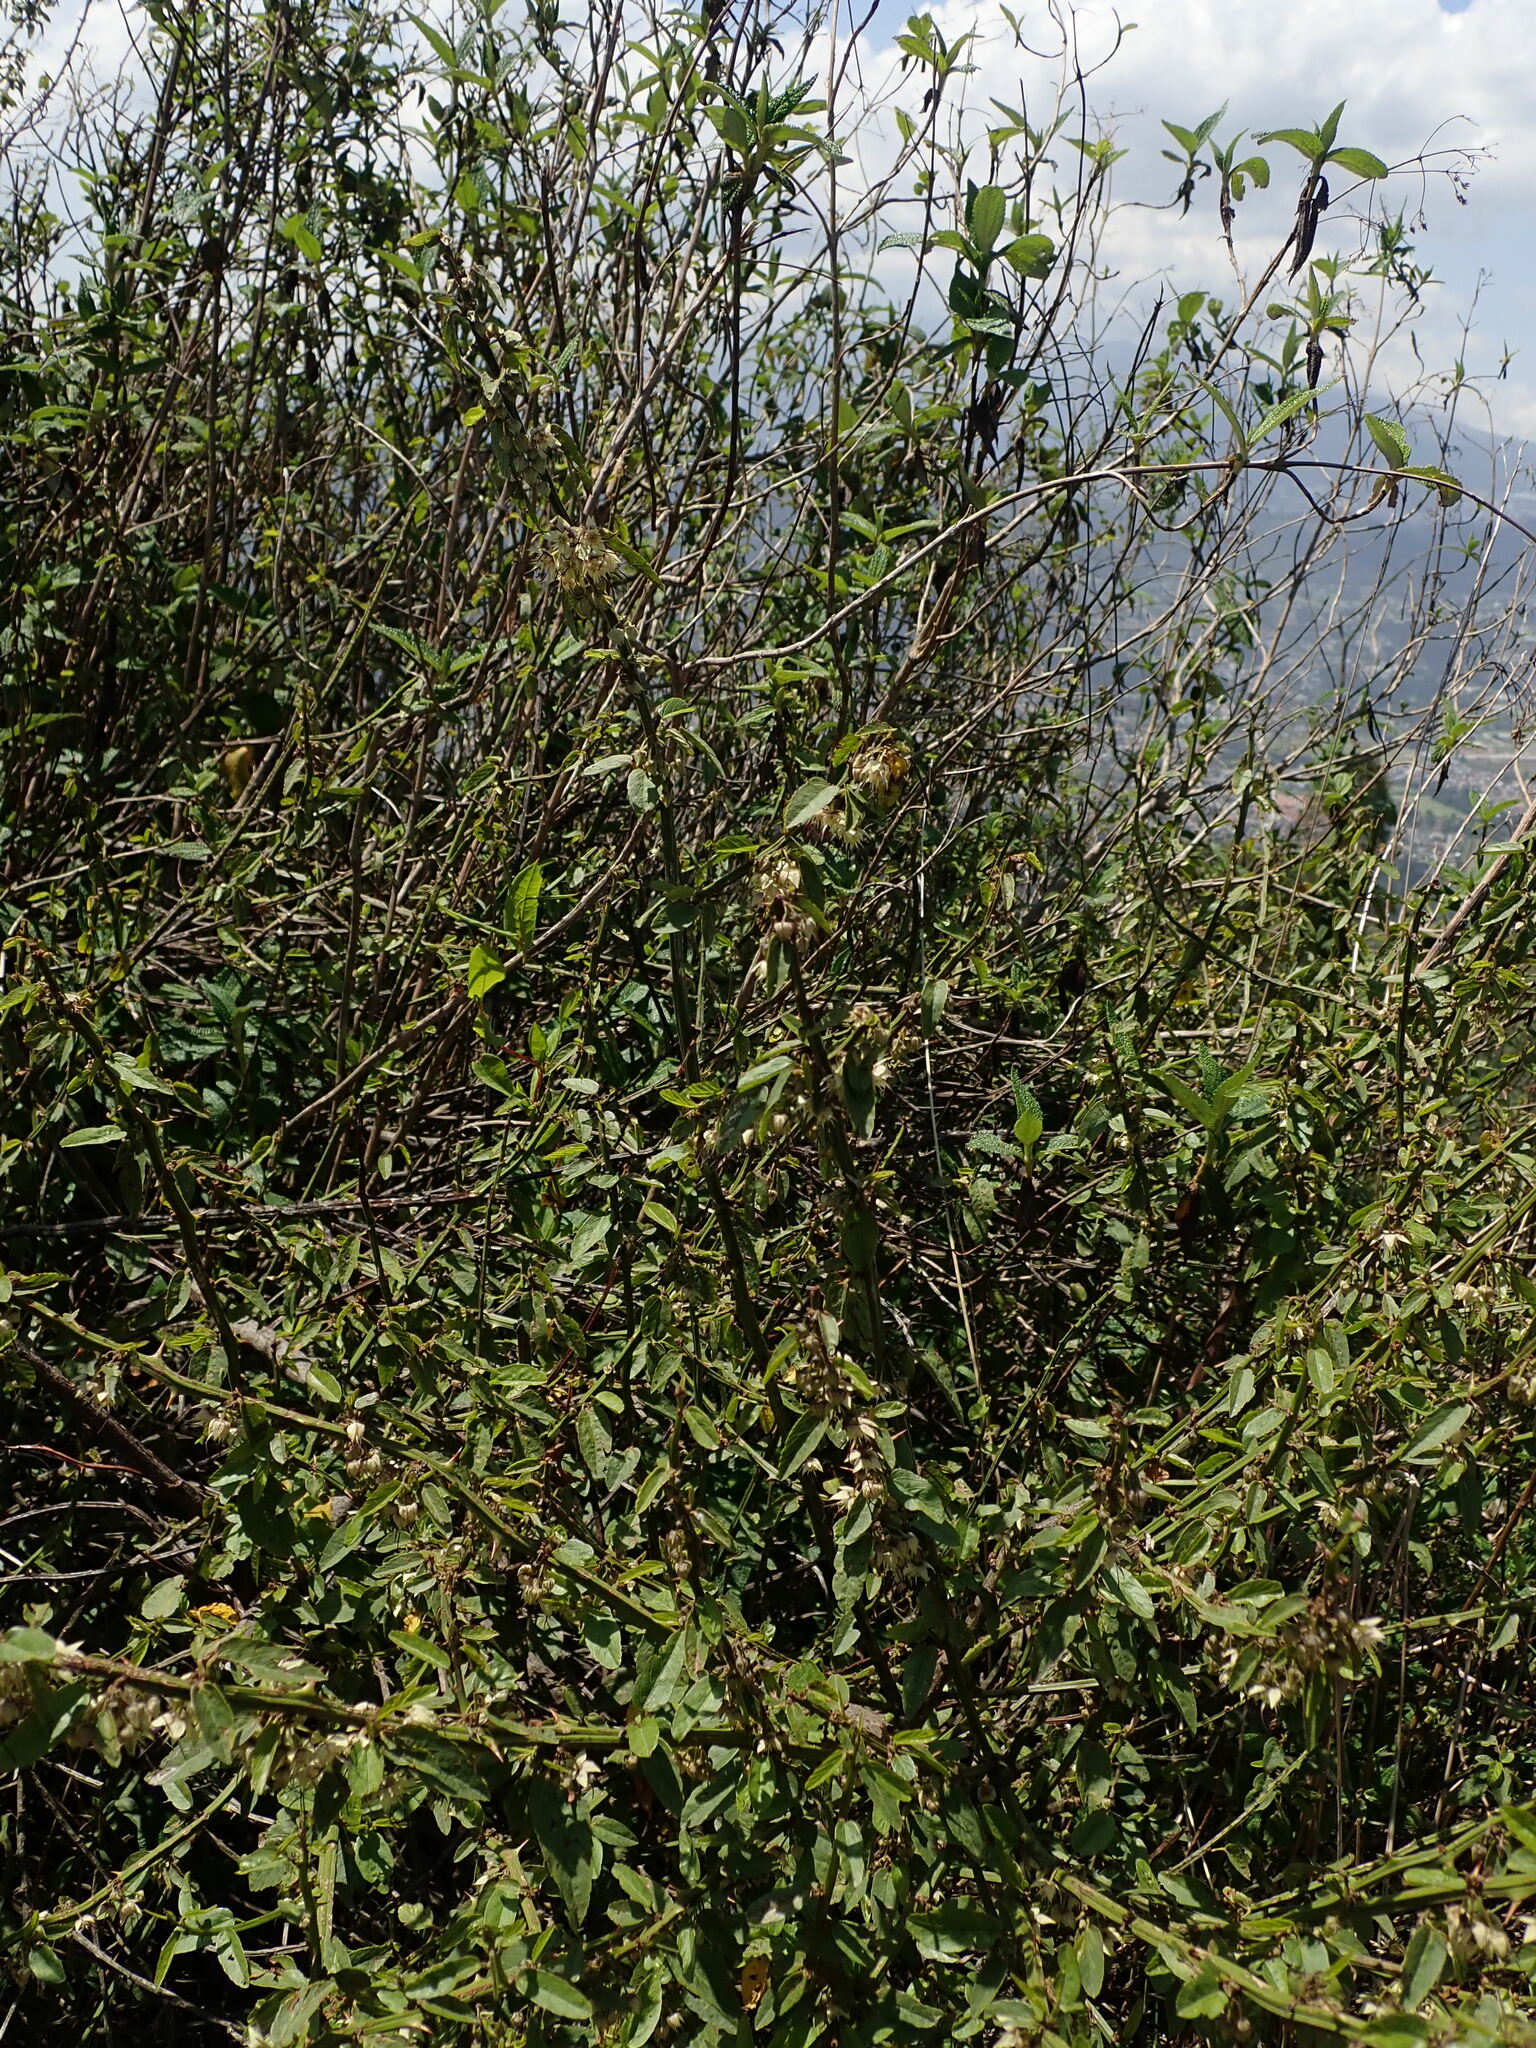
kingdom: Plantae
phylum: Tracheophyta
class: Magnoliopsida
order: Malvales
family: Malvaceae
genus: Byttneria
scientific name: Byttneria ovata
